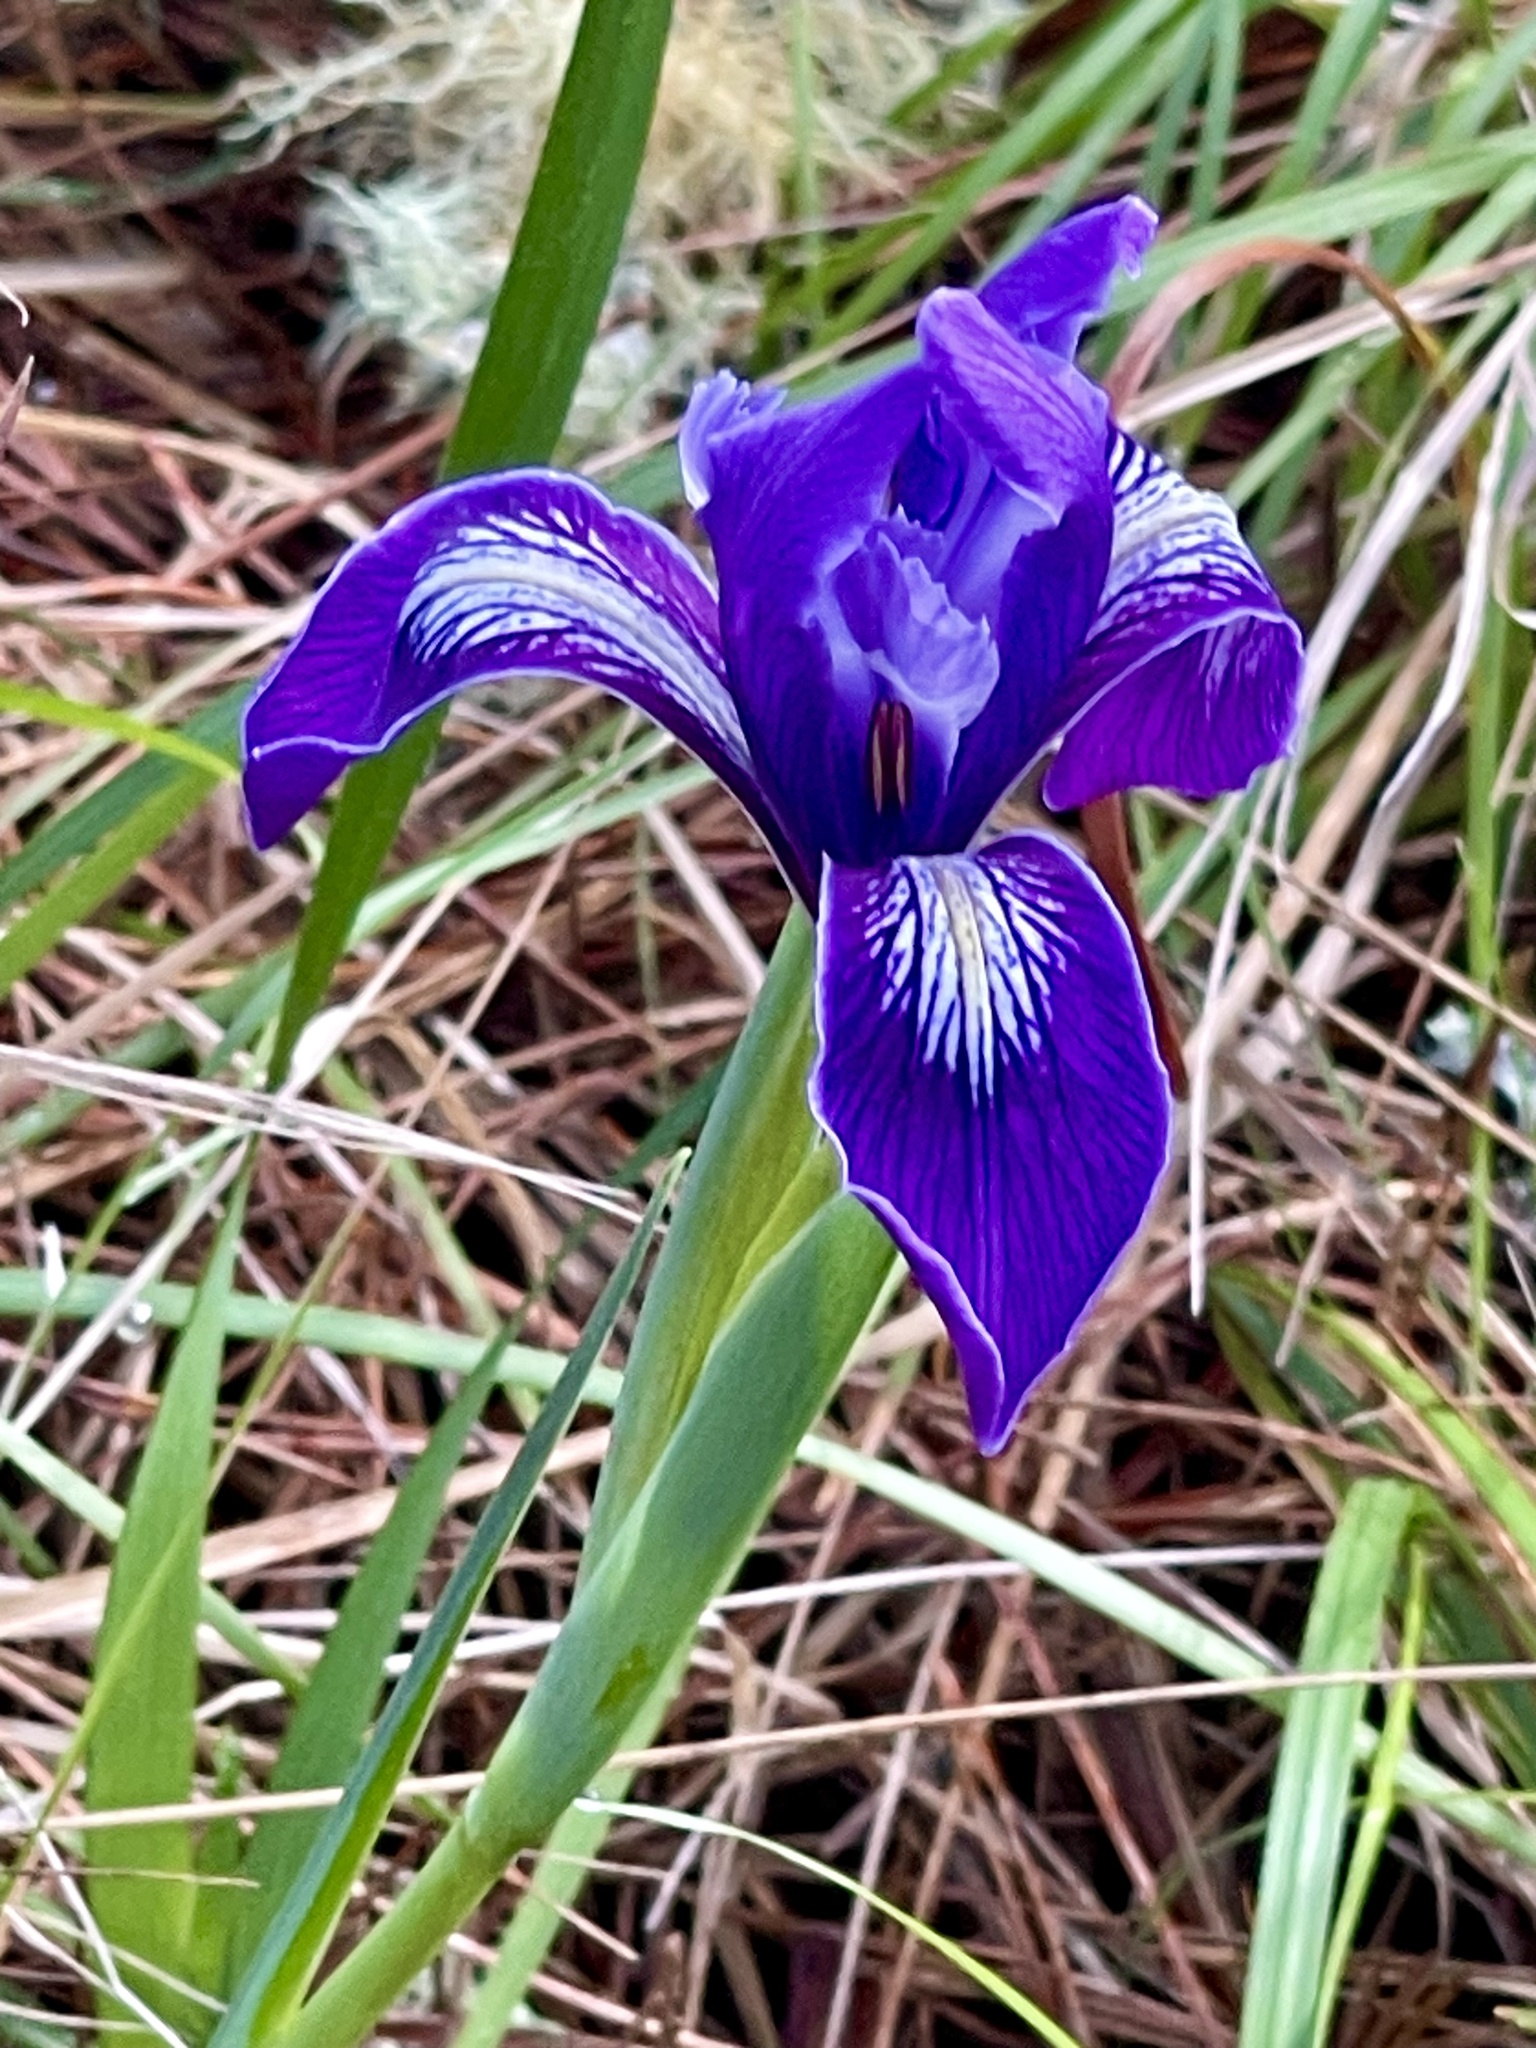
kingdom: Plantae
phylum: Tracheophyta
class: Liliopsida
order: Asparagales
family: Iridaceae
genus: Iris
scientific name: Iris douglasiana
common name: Marin iris
